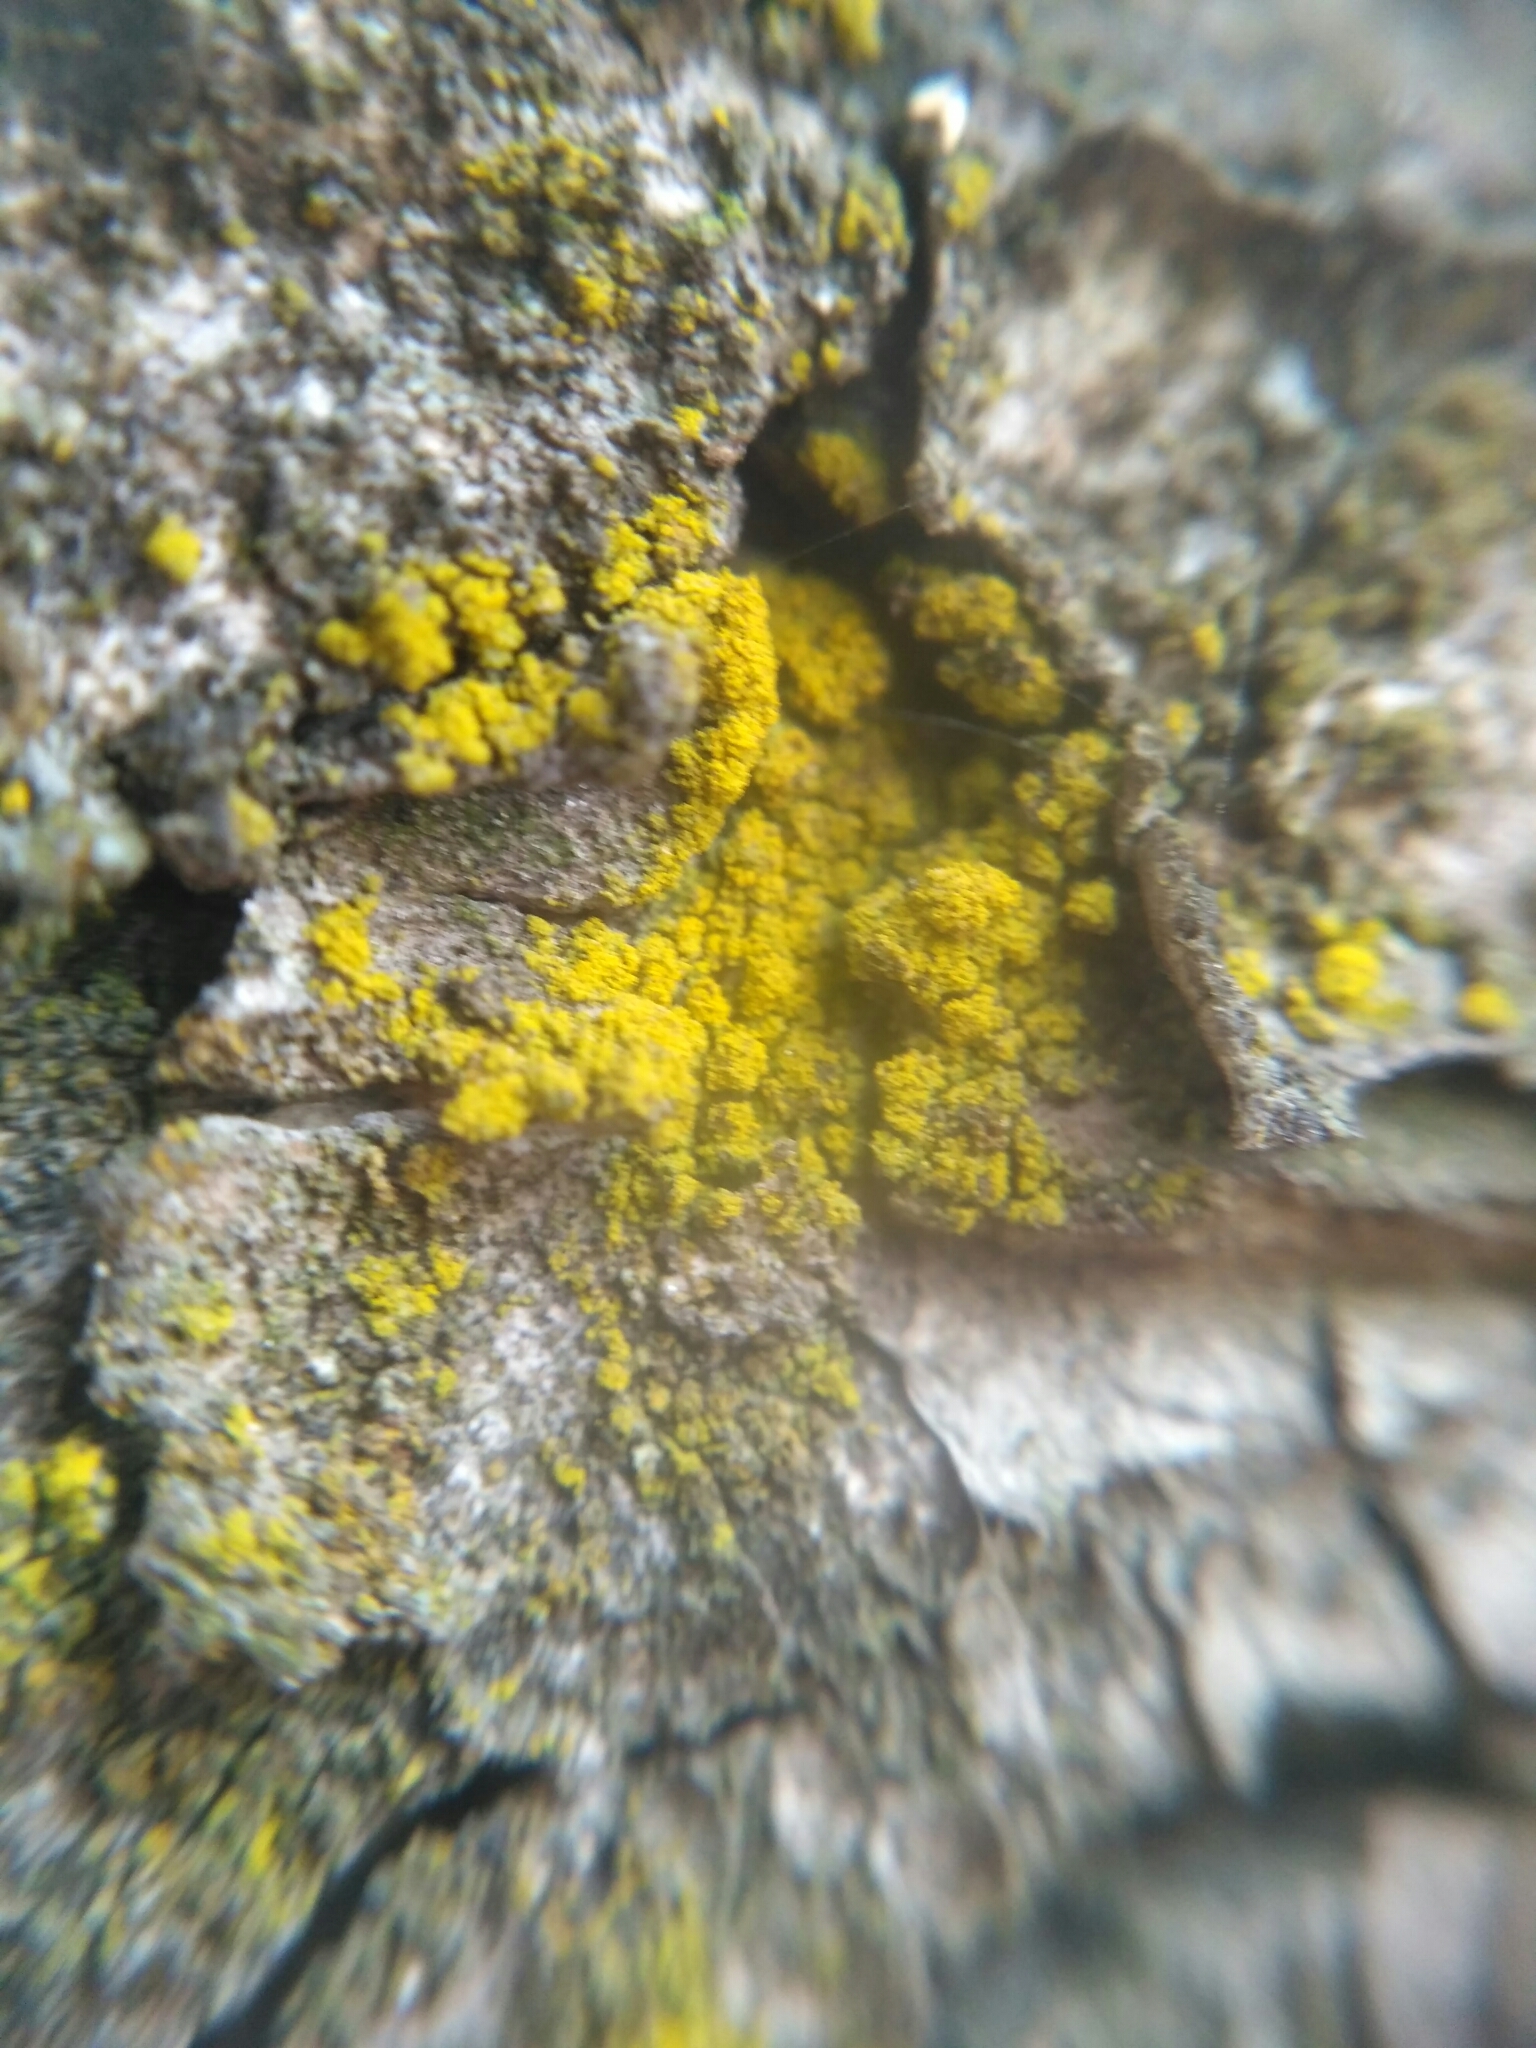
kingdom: Fungi
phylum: Ascomycota
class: Candelariomycetes
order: Candelariales
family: Candelariaceae
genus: Candelariella
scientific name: Candelariella efflorescens
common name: Powdery goldspeck
